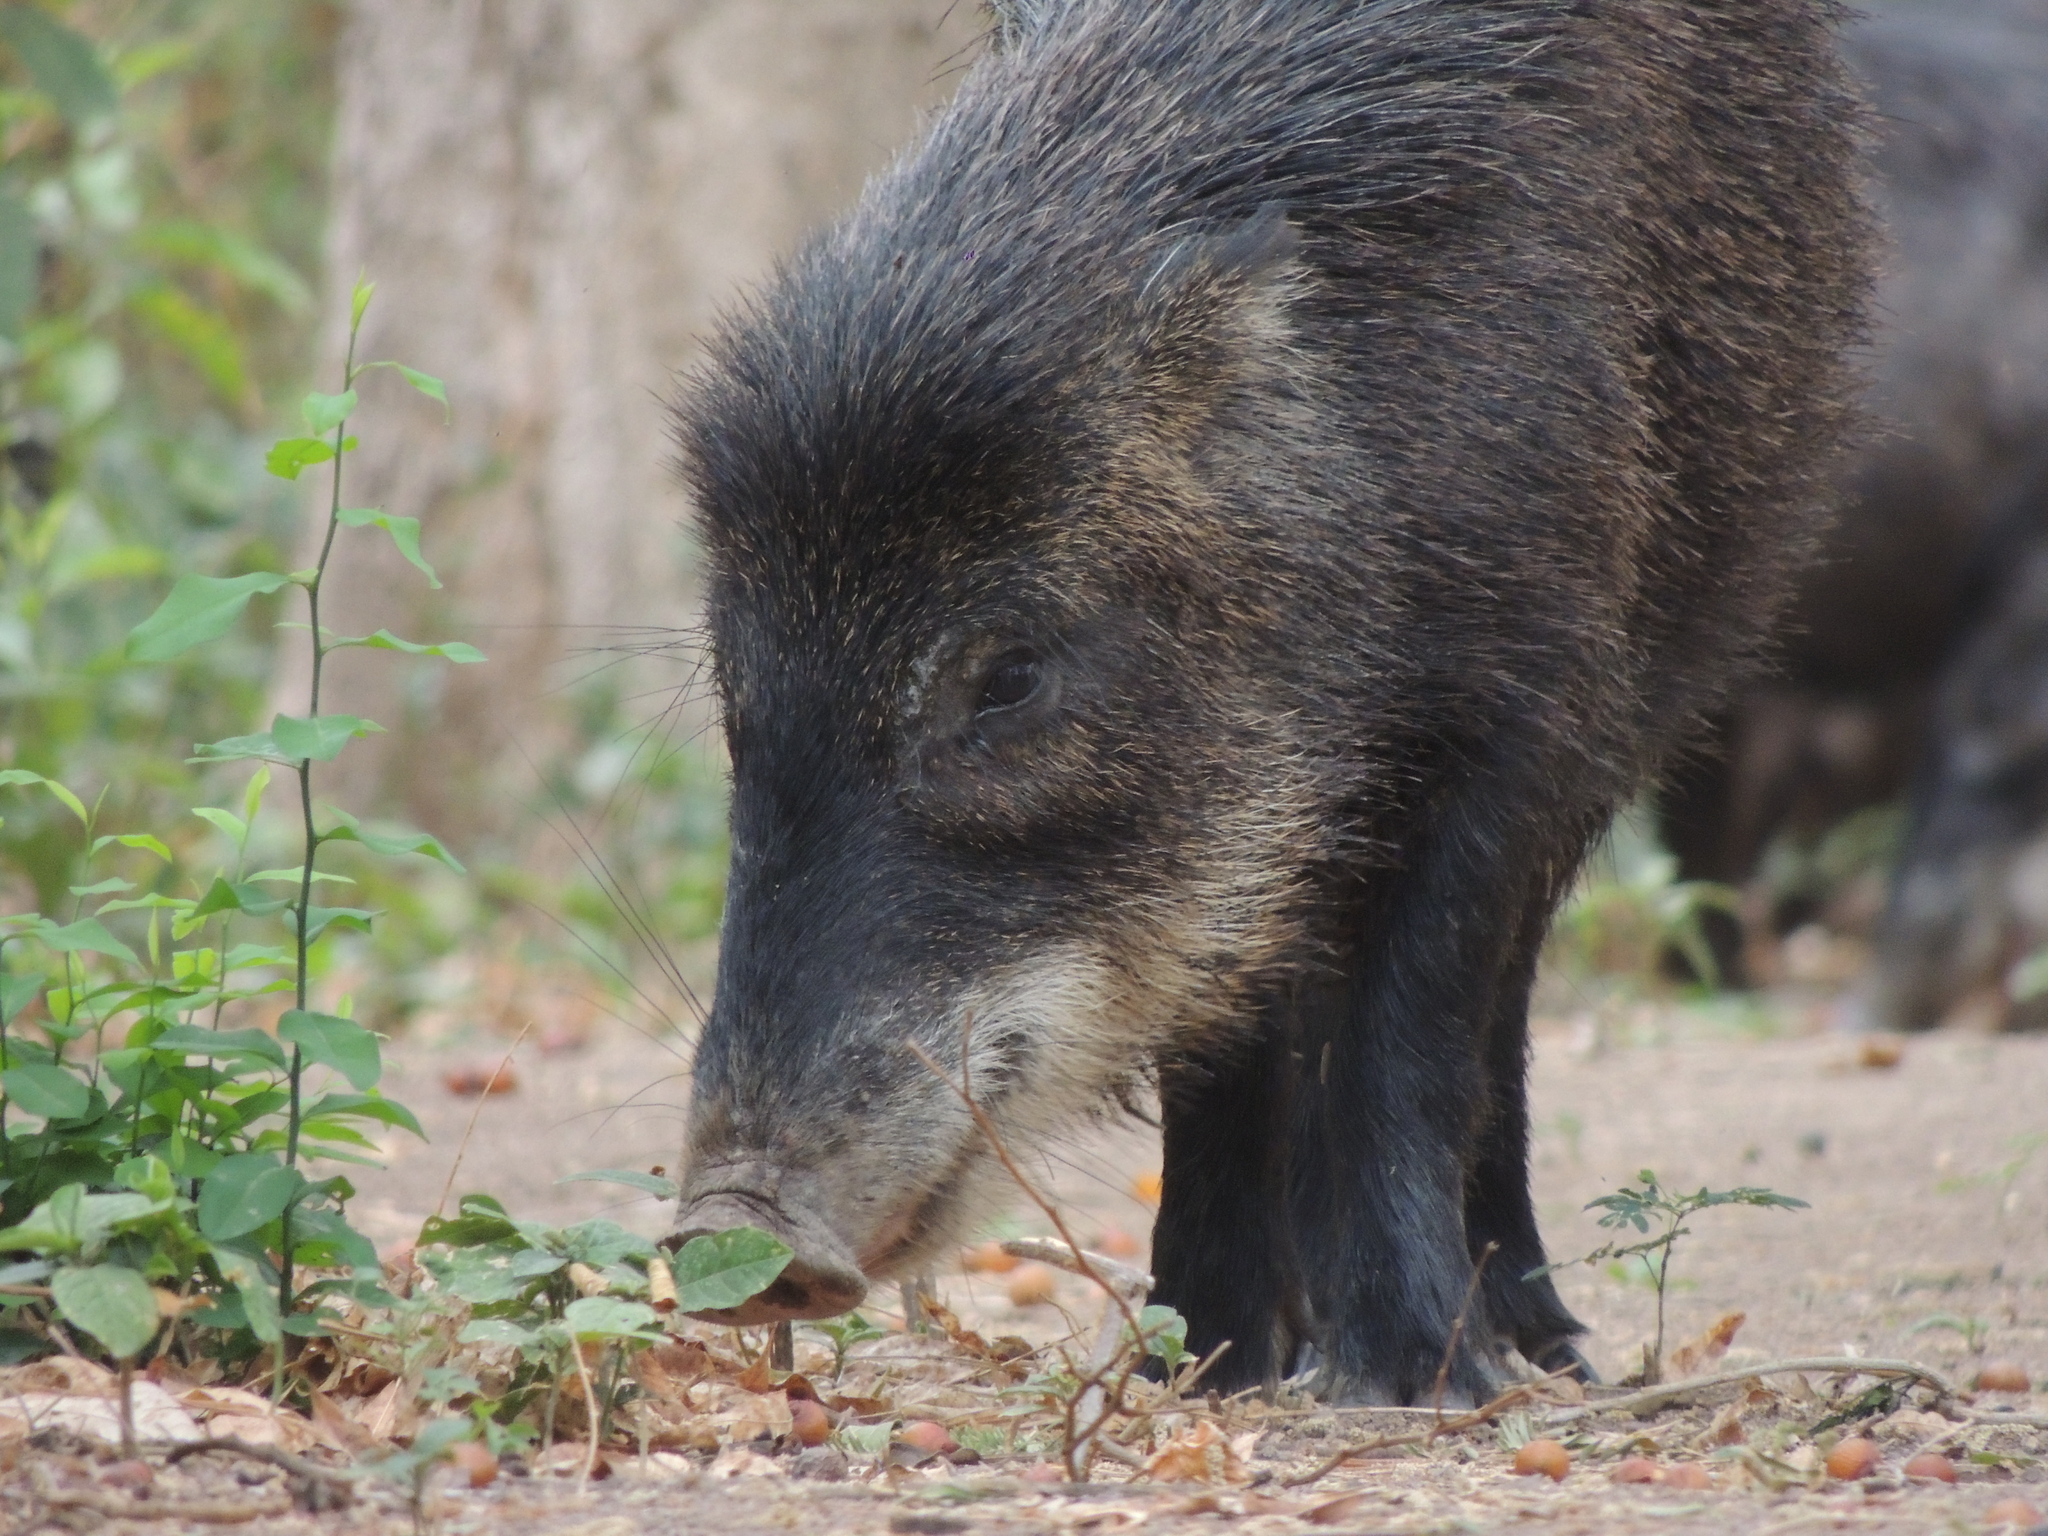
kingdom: Animalia
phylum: Chordata
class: Mammalia
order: Artiodactyla
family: Tayassuidae
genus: Tayassu
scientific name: Tayassu pecari
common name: White-lipped peccary
